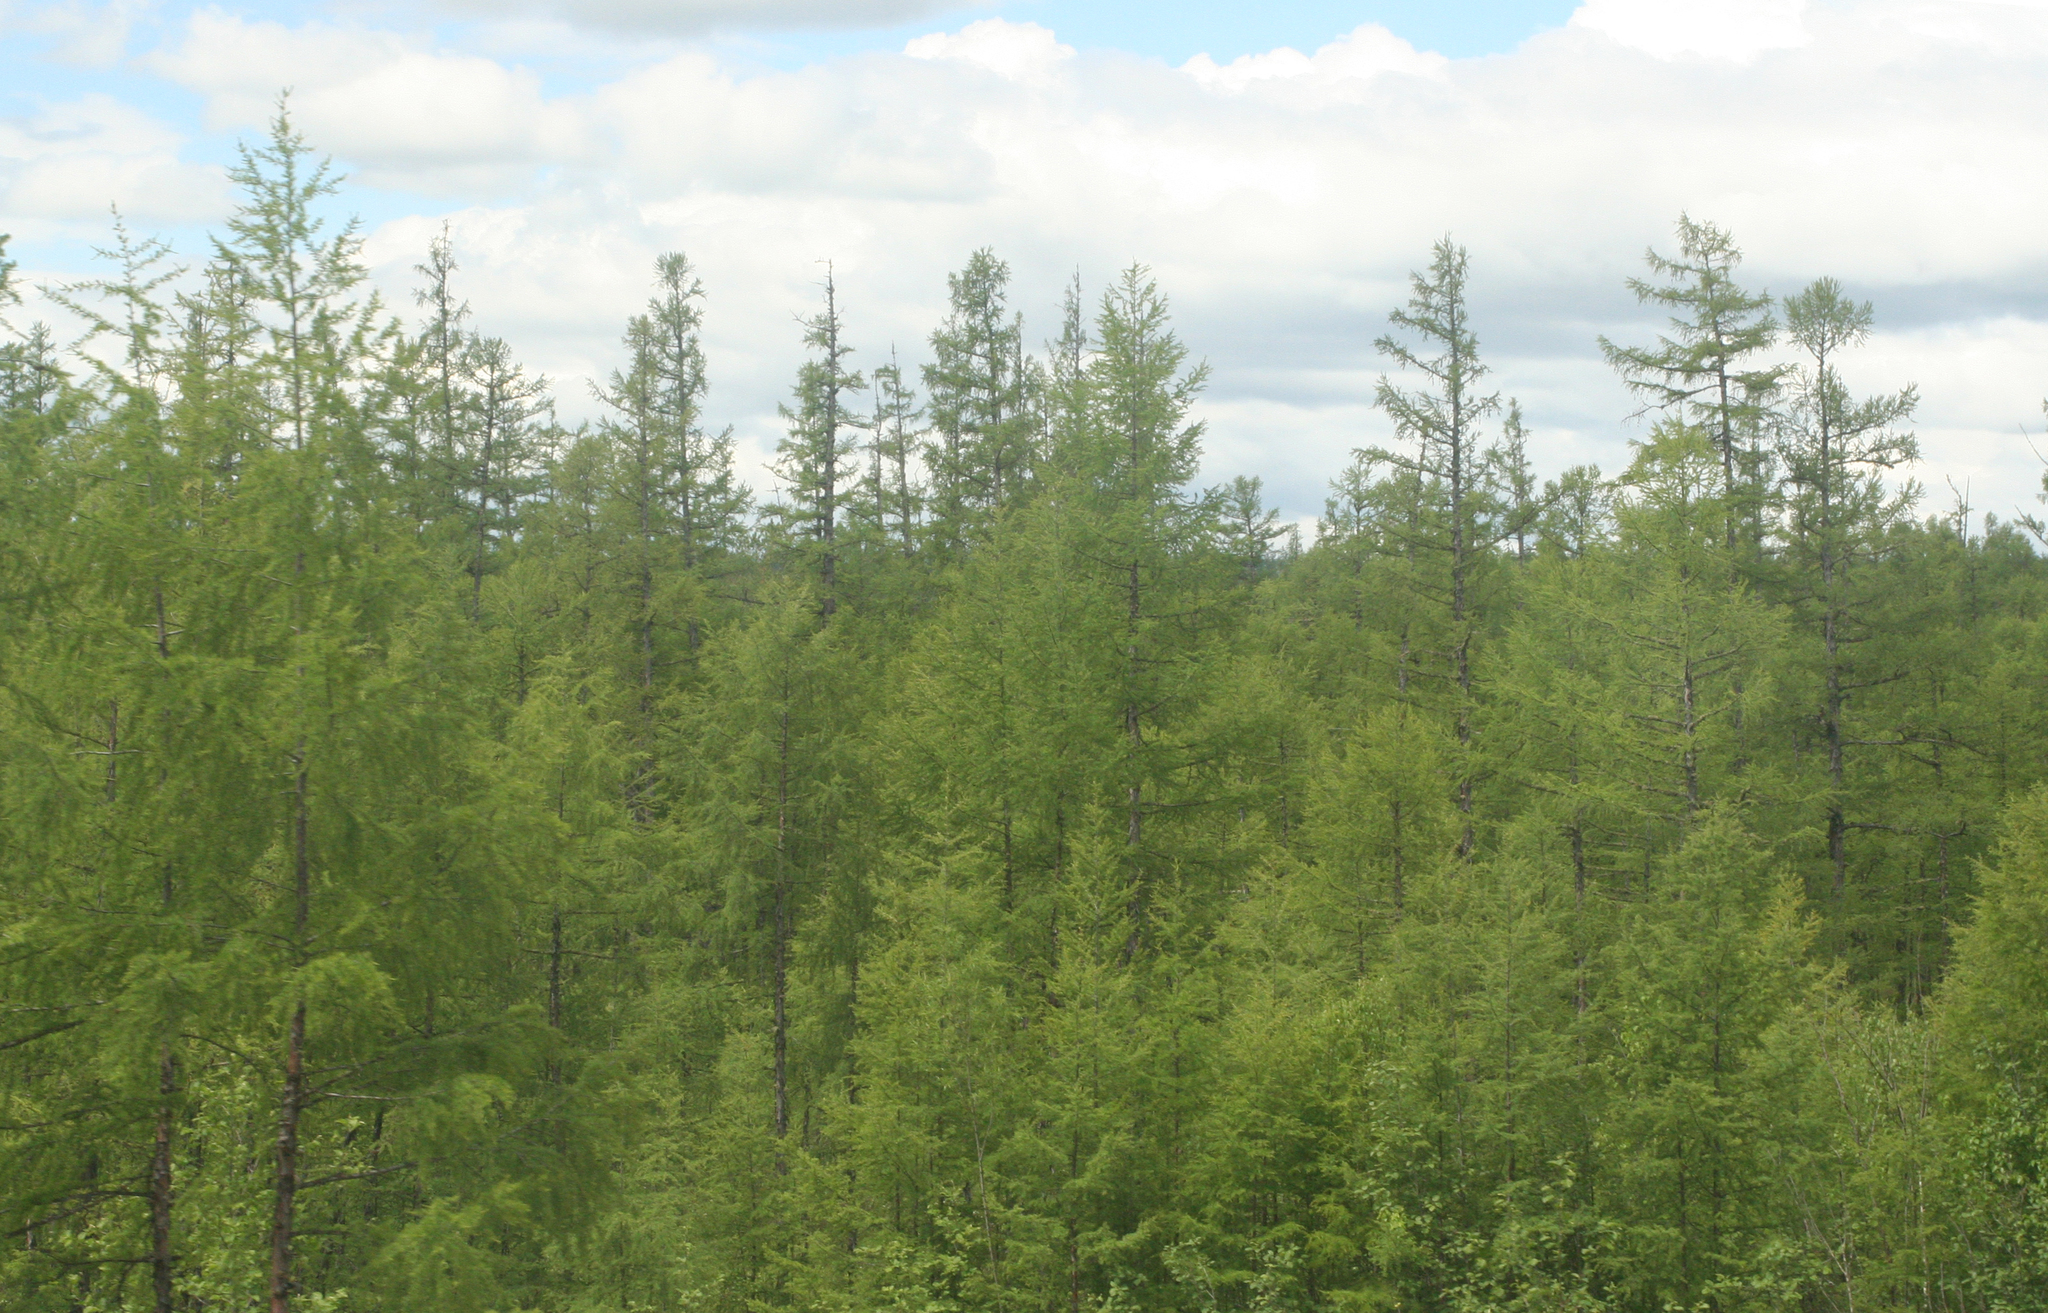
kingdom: Plantae
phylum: Tracheophyta
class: Pinopsida
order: Pinales
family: Pinaceae
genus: Larix
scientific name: Larix gmelinii
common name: Dahurian larch
